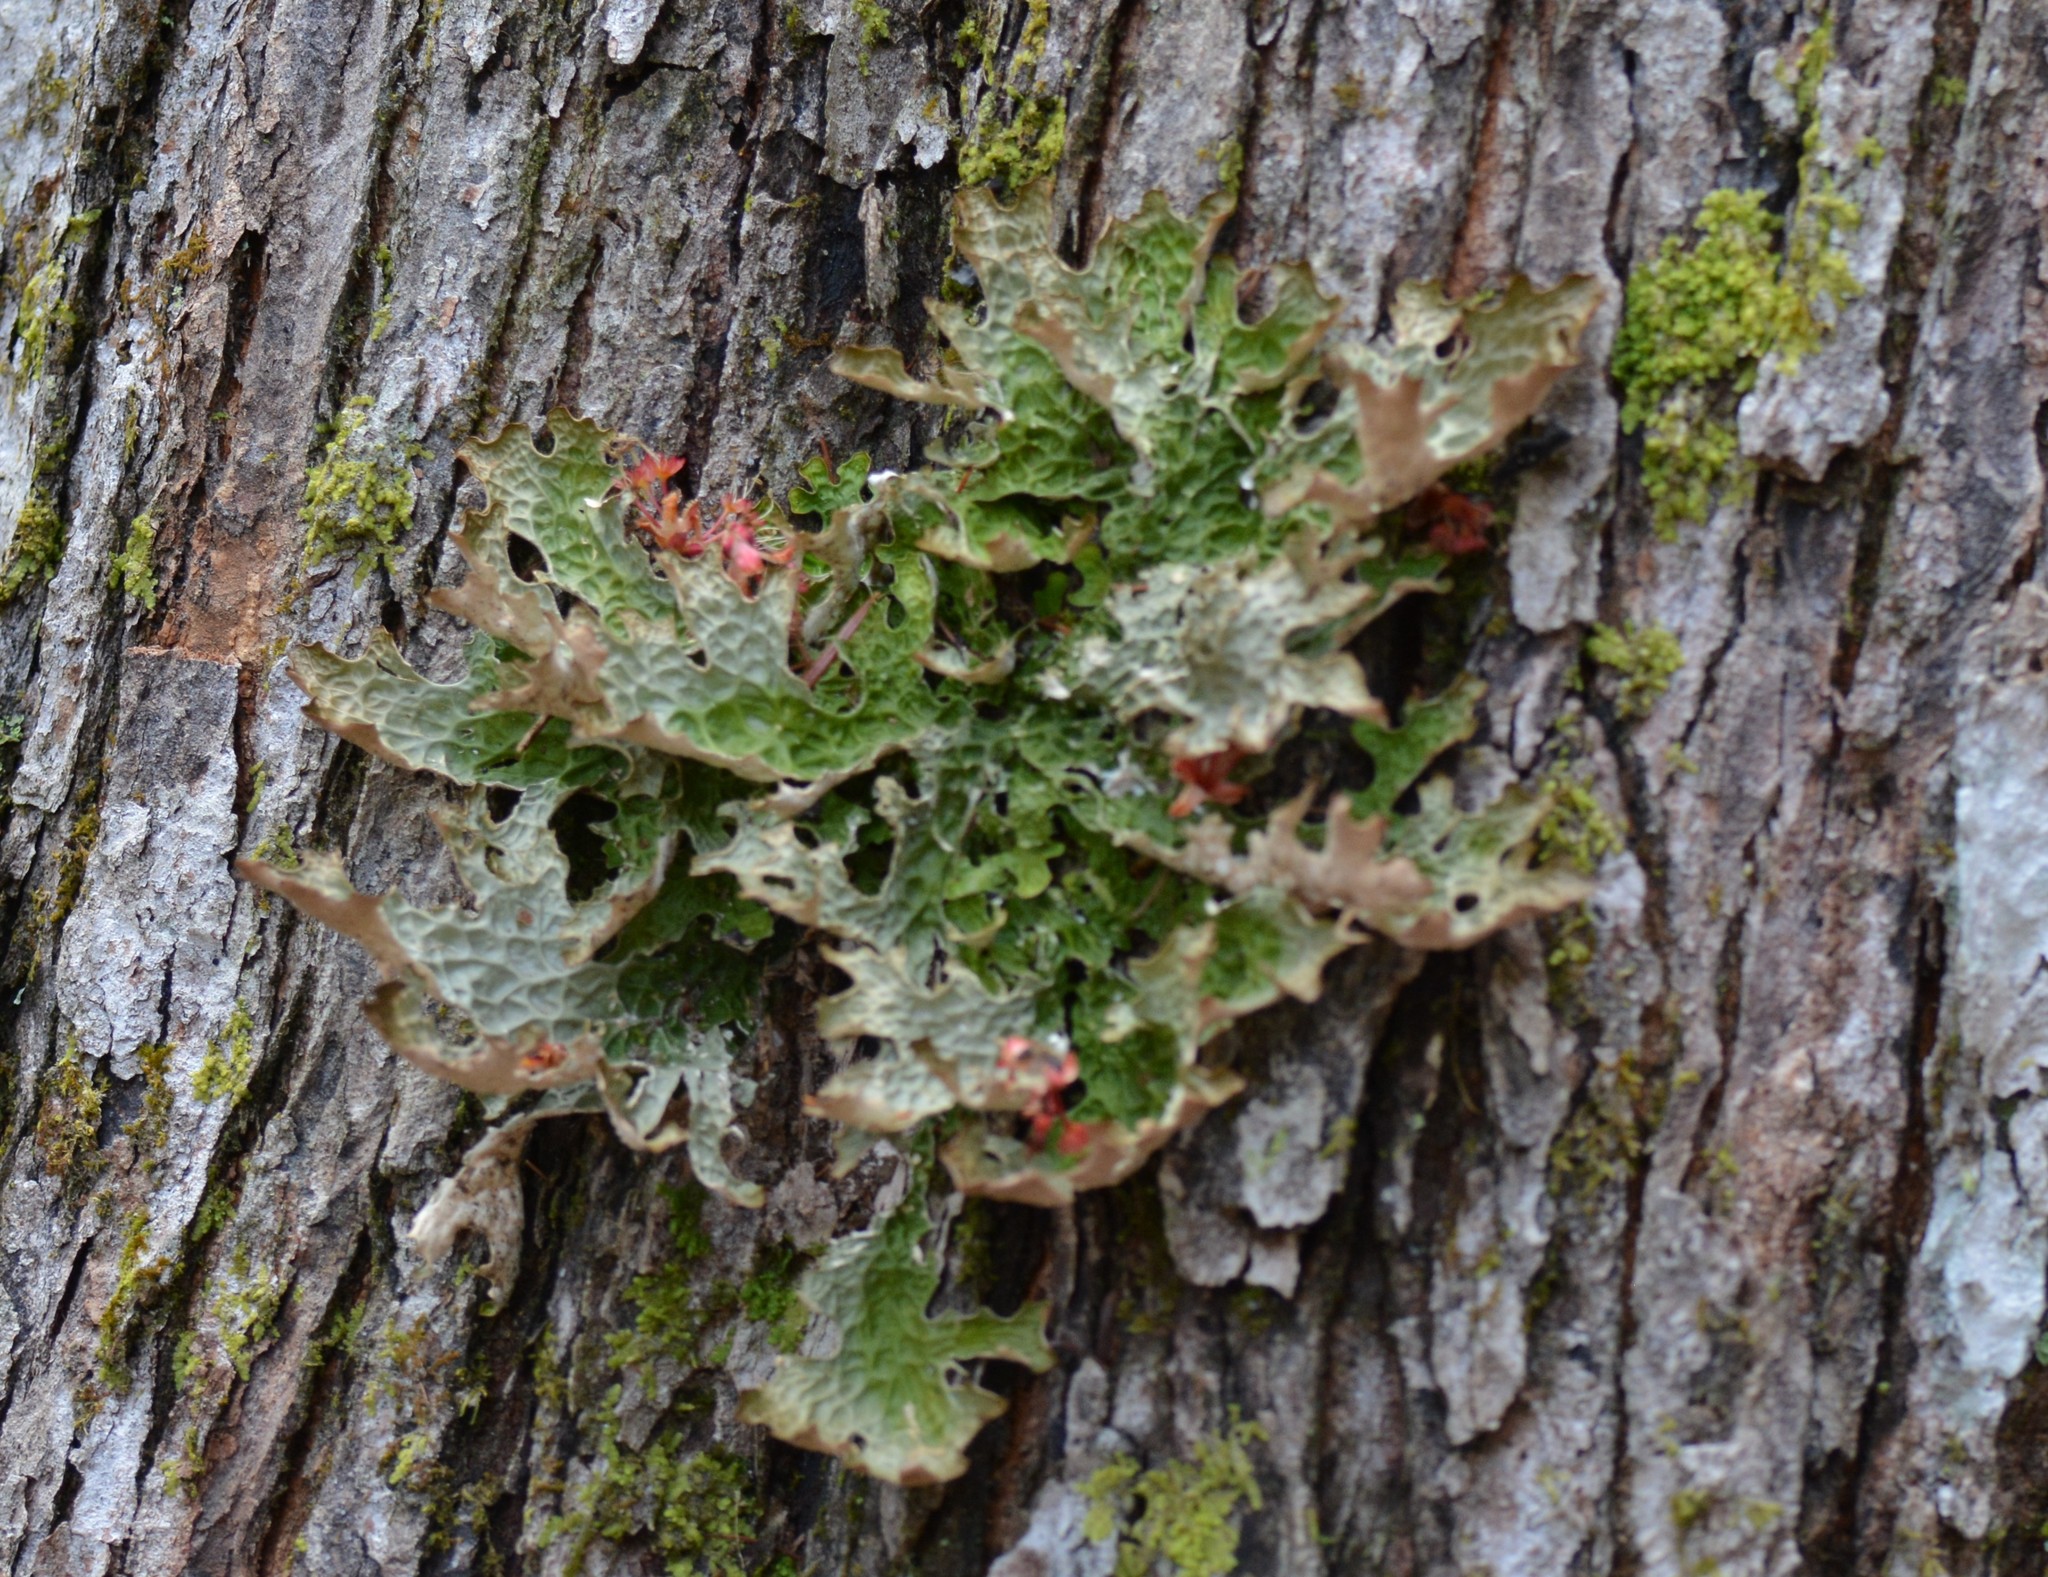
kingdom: Fungi
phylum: Ascomycota
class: Lecanoromycetes
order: Peltigerales
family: Lobariaceae
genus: Lobaria
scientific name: Lobaria pulmonaria
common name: Lungwort
